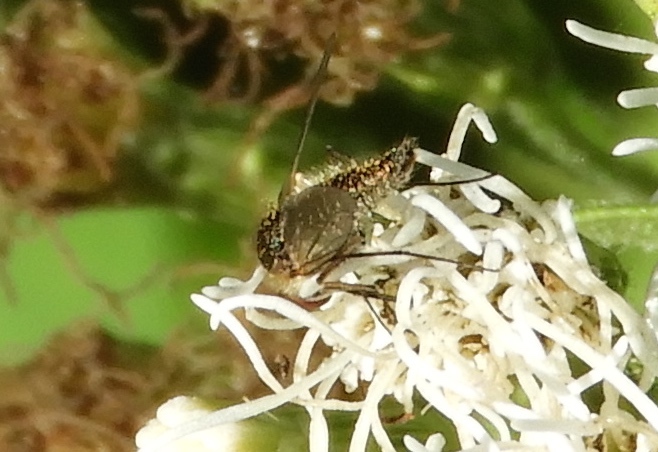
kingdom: Animalia
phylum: Arthropoda
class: Insecta
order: Diptera
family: Bombyliidae
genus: Geron
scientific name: Geron
